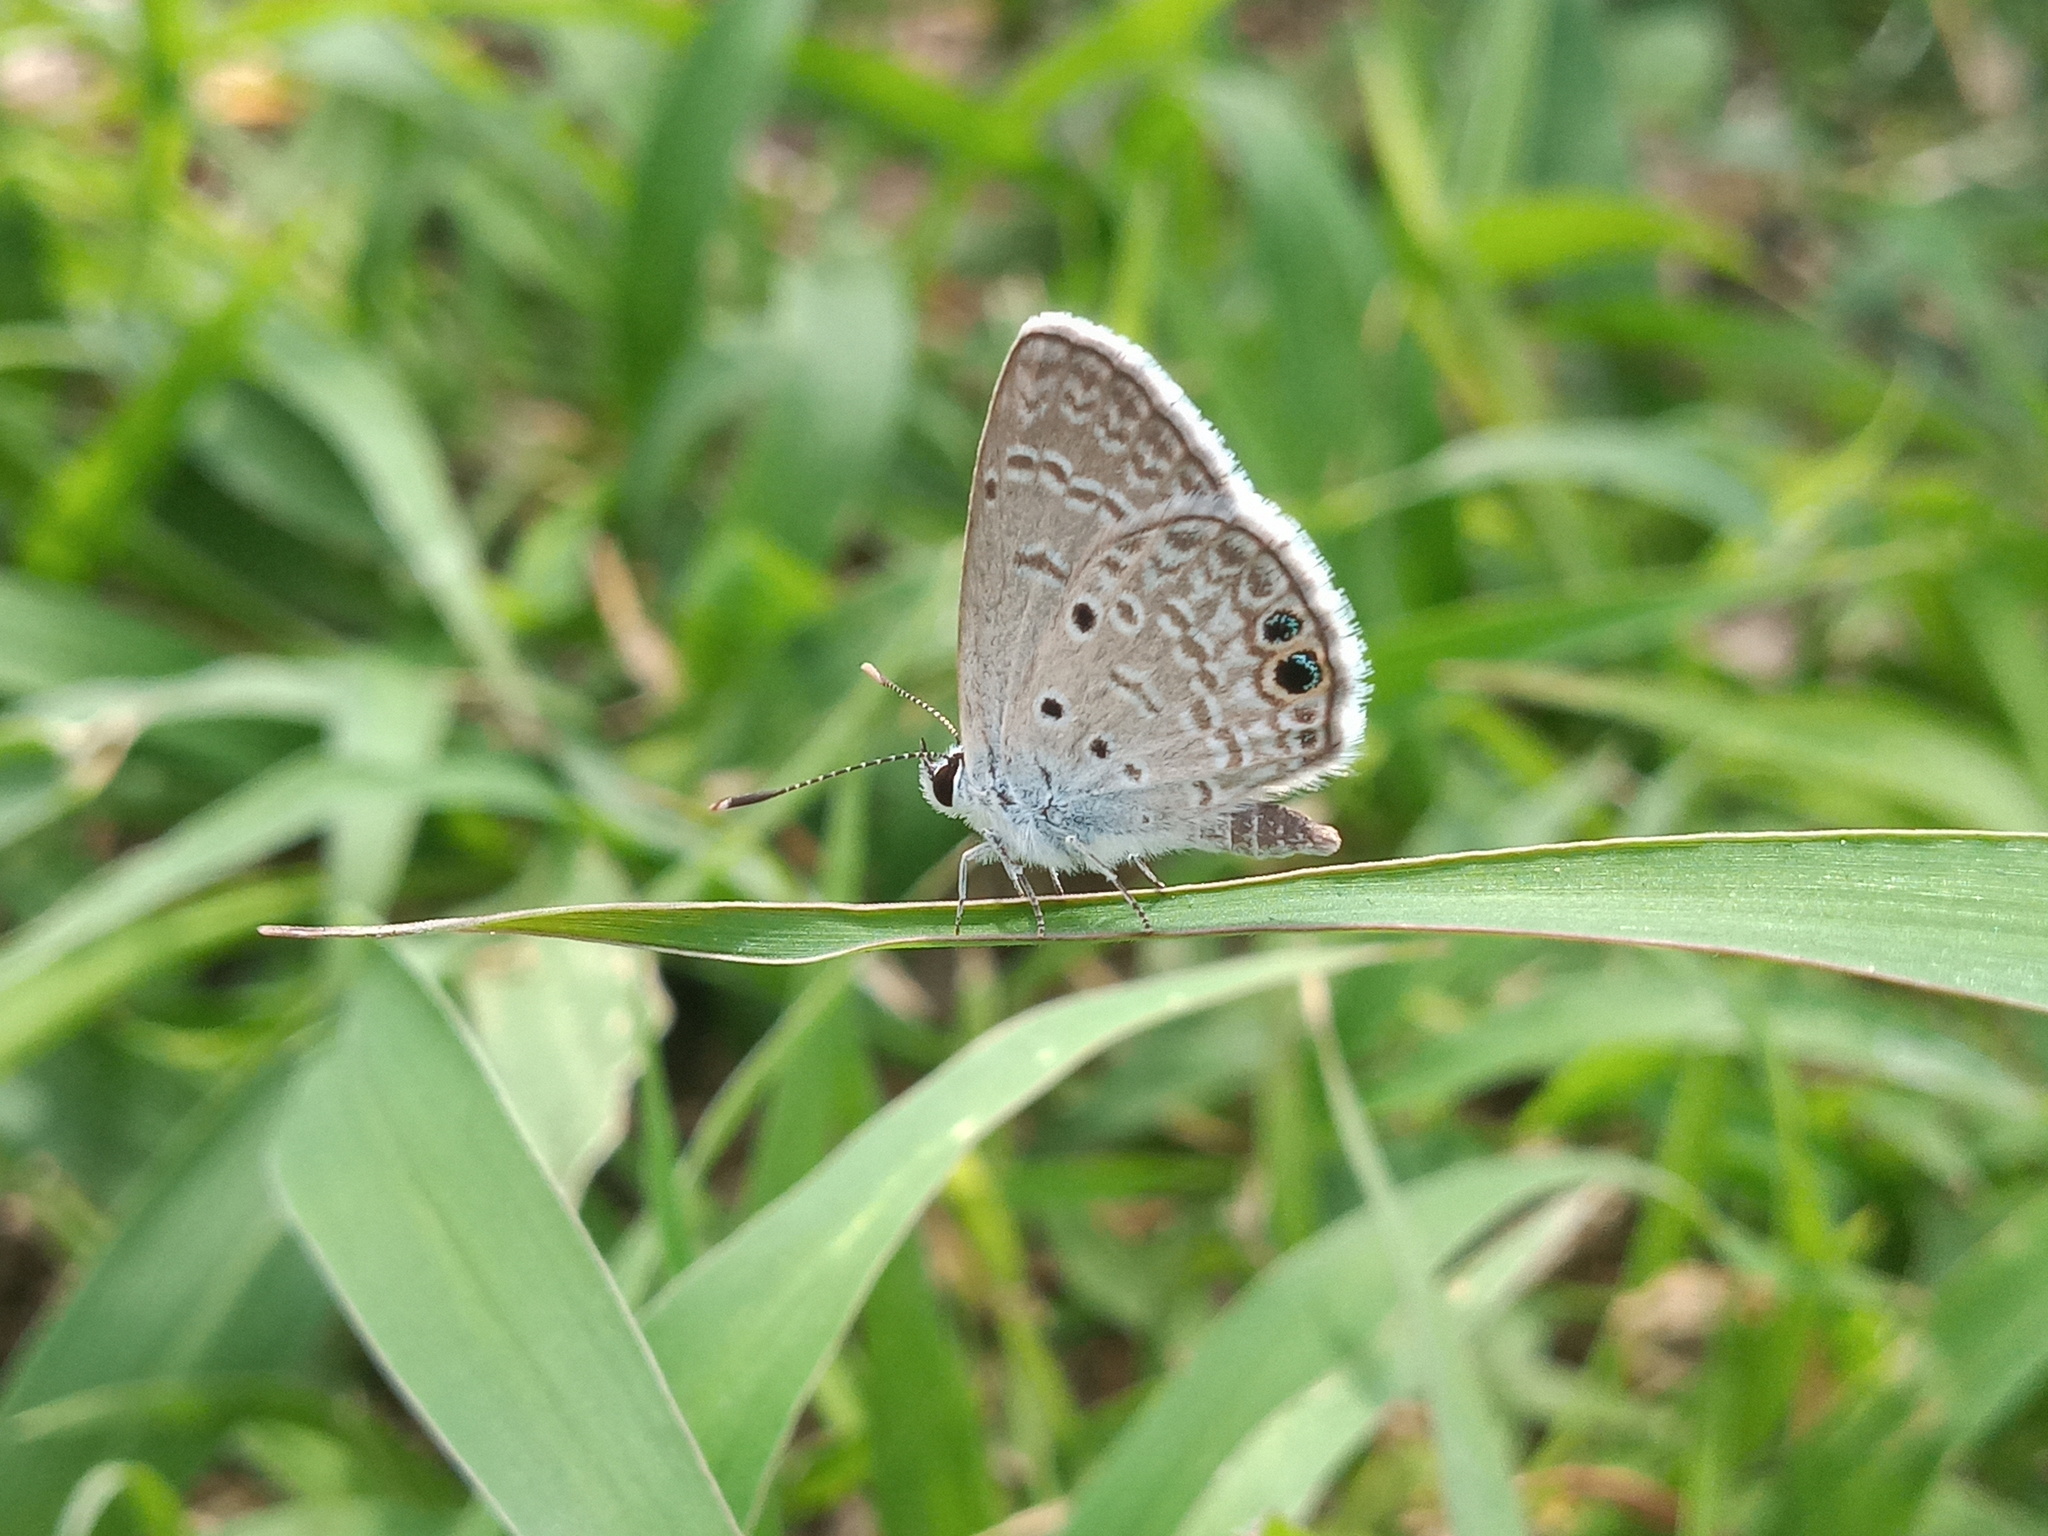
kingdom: Animalia
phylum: Arthropoda
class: Insecta
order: Lepidoptera
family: Lycaenidae
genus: Hemiargus
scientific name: Hemiargus ceraunus
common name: Ceraunus blue
